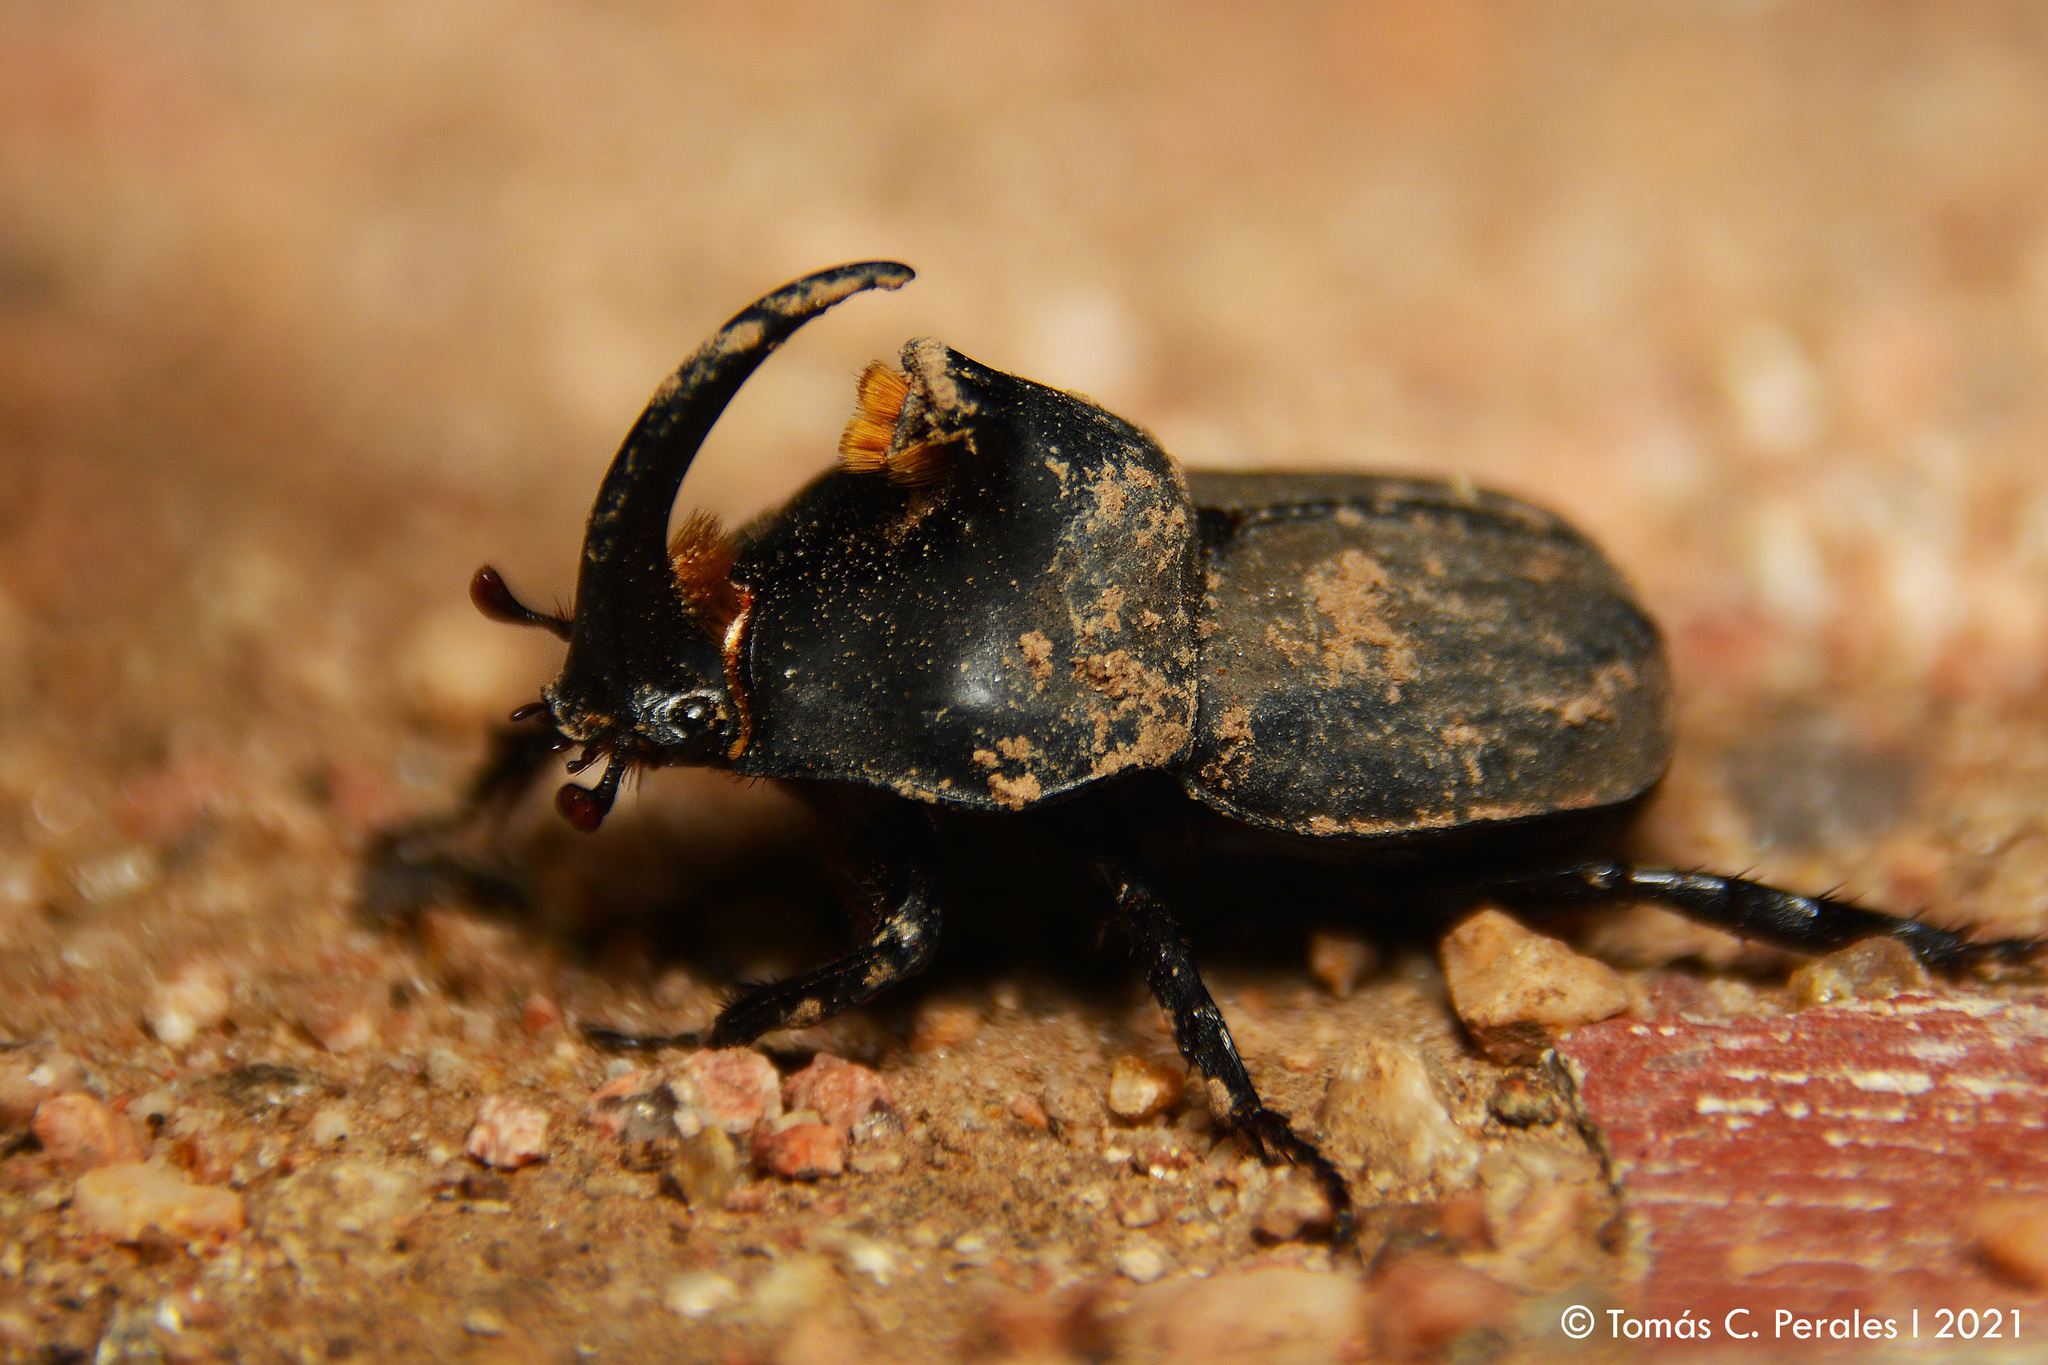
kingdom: Animalia
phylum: Arthropoda
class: Insecta
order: Coleoptera
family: Scarabaeidae
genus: Diloboderus
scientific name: Diloboderus abderus
